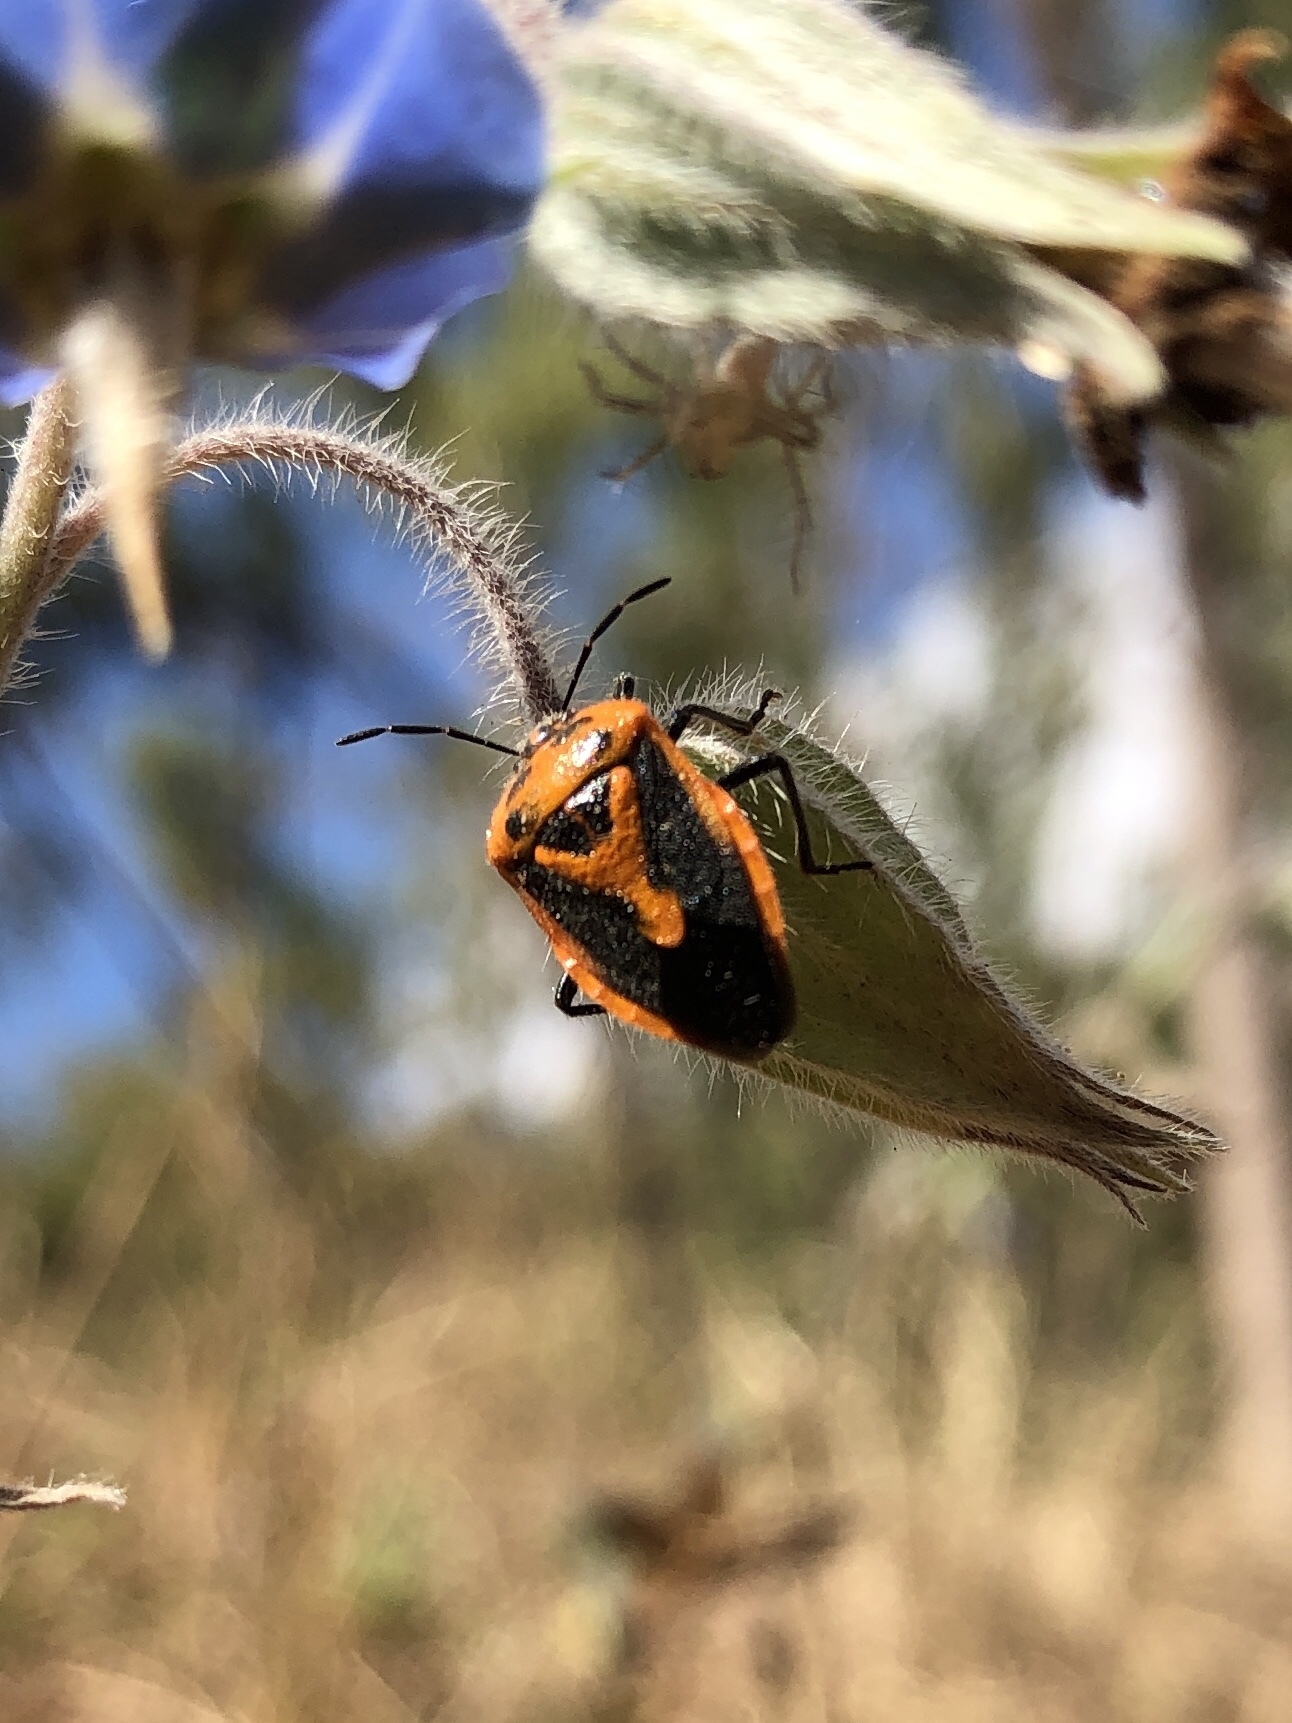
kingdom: Animalia
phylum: Arthropoda
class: Insecta
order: Hemiptera
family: Pentatomidae
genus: Agonoscelis
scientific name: Agonoscelis rutila
